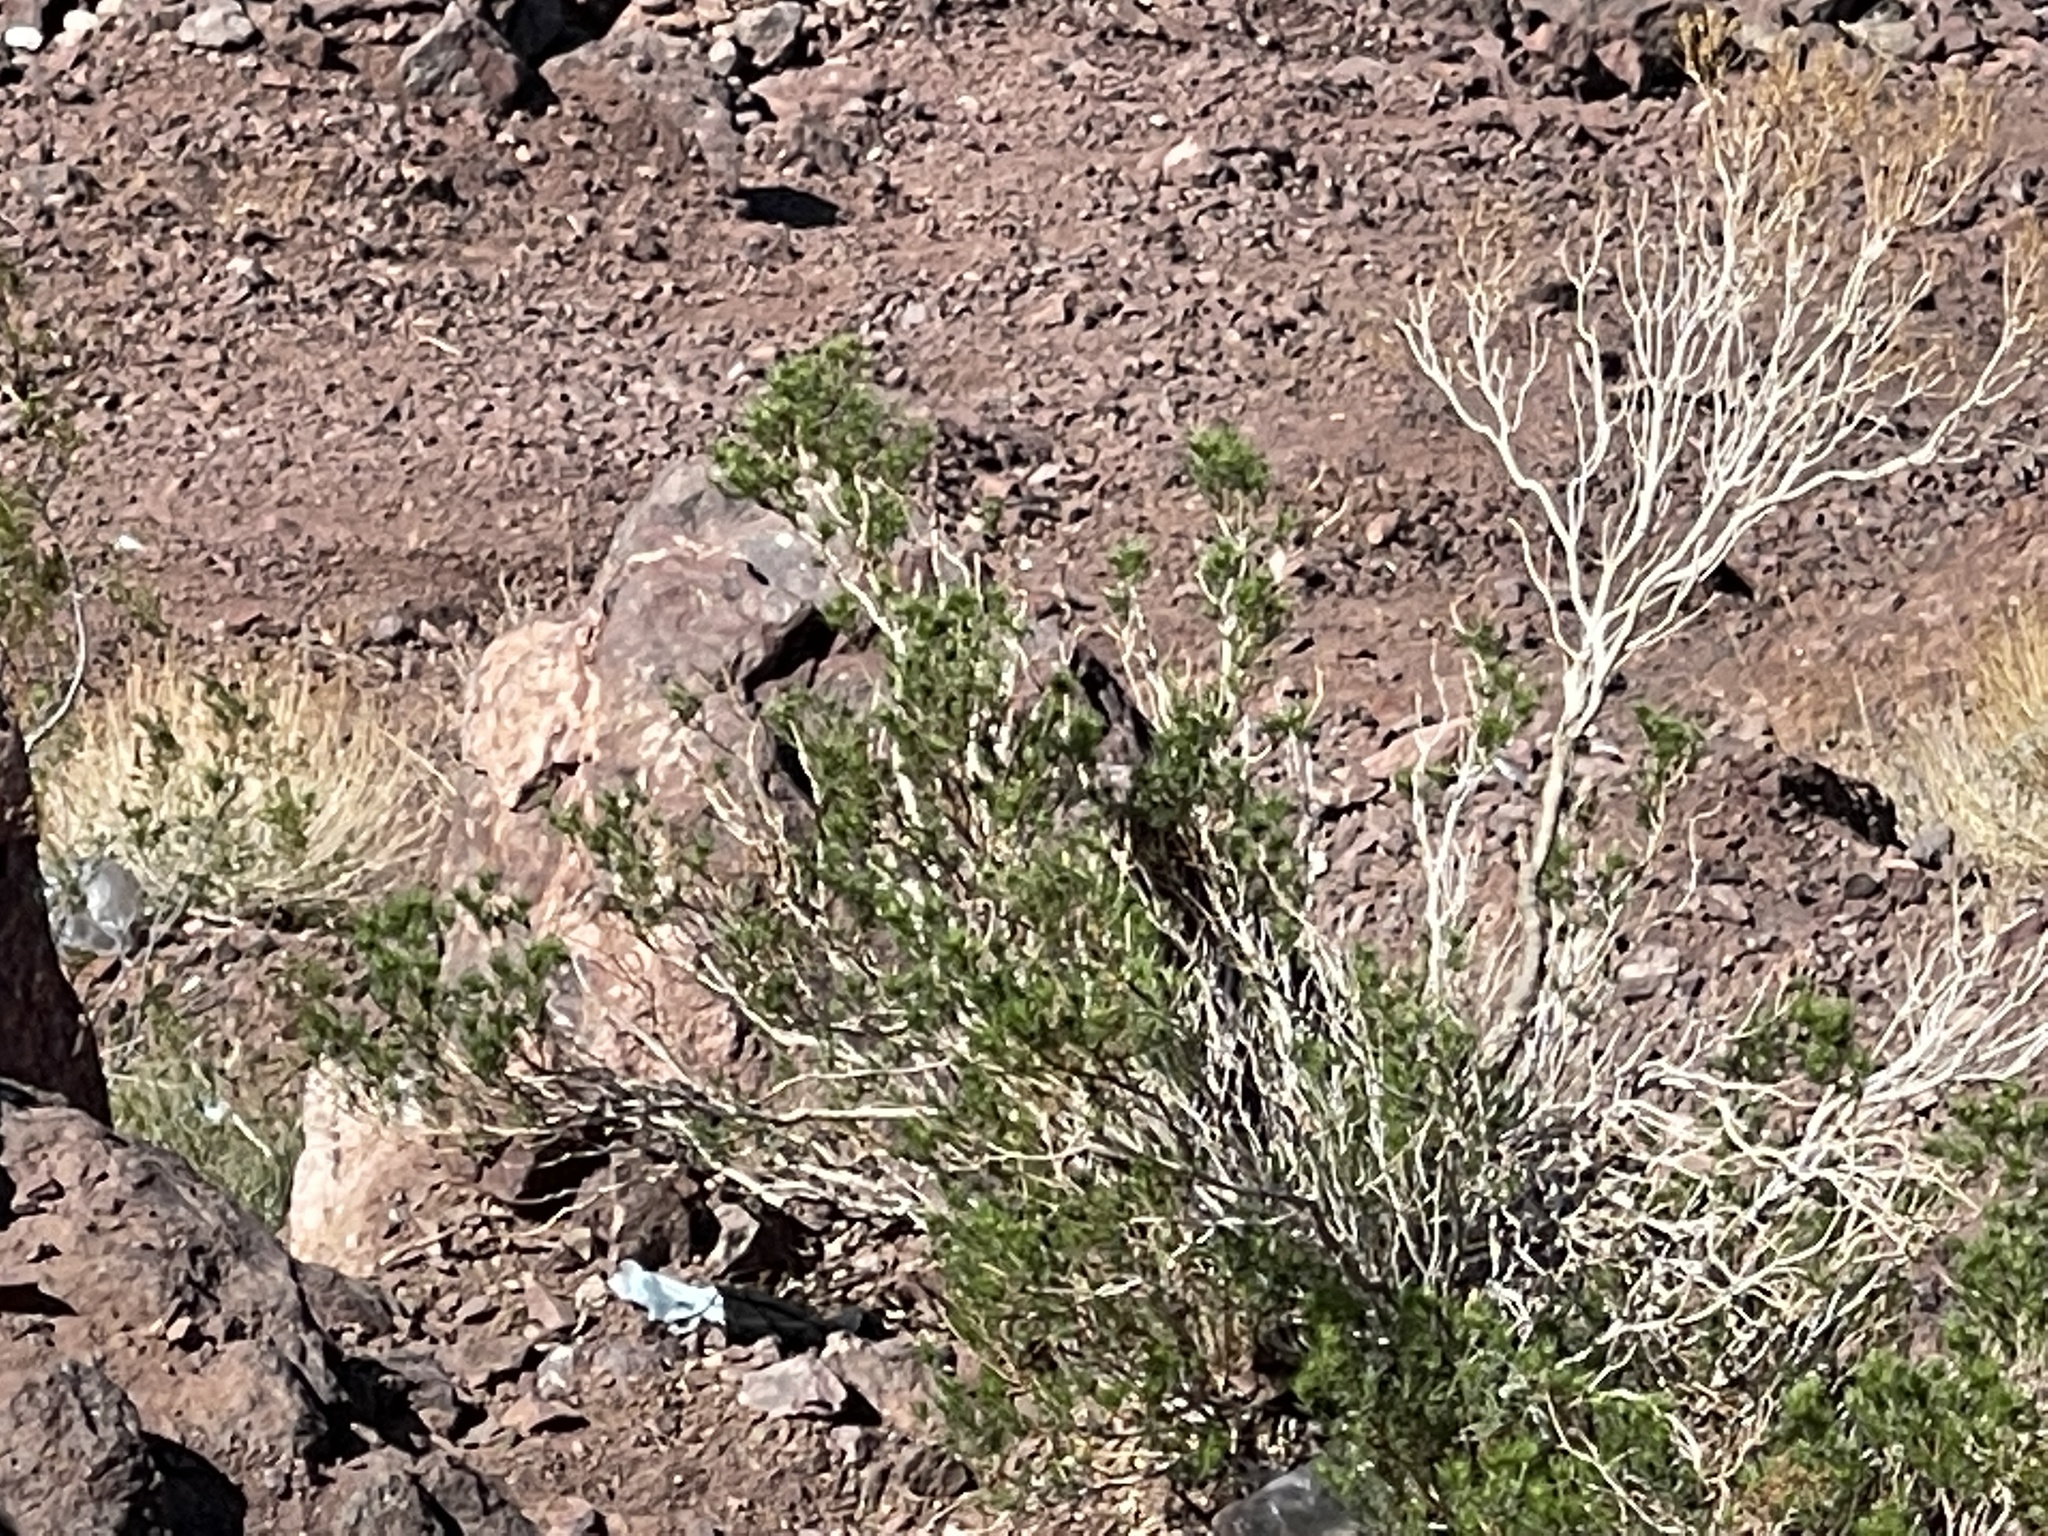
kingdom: Plantae
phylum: Tracheophyta
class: Magnoliopsida
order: Asterales
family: Asteraceae
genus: Peucephyllum
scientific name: Peucephyllum schottii
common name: Pygmy-cedar
